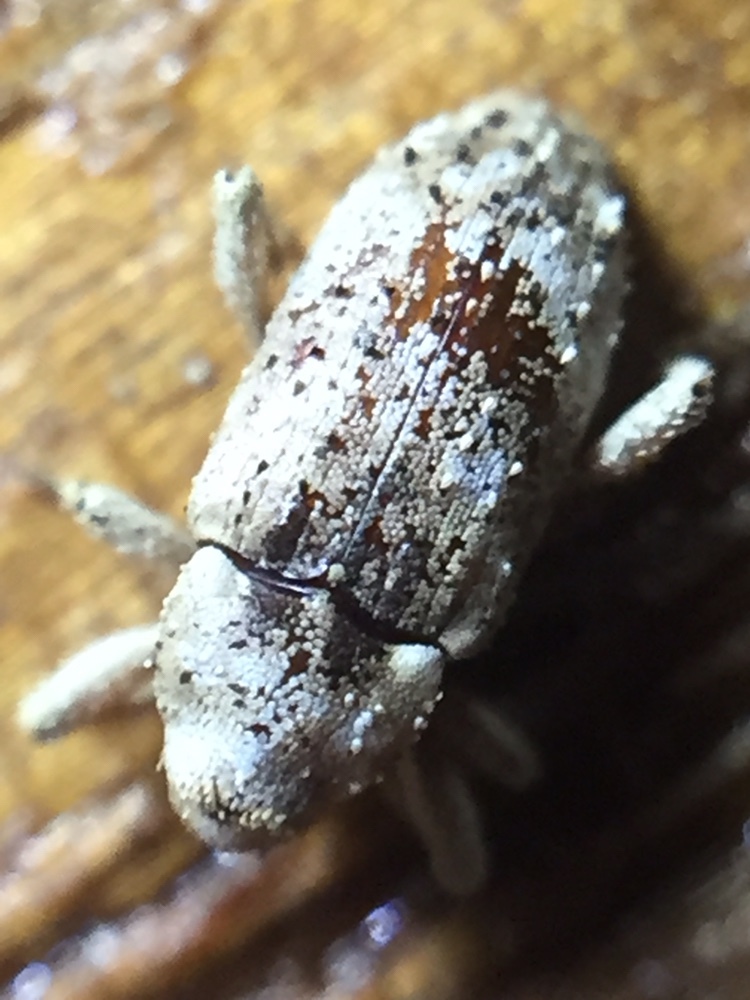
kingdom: Animalia
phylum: Arthropoda
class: Insecta
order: Coleoptera
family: Curculionidae
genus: Mitrastethus
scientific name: Mitrastethus baridioides
